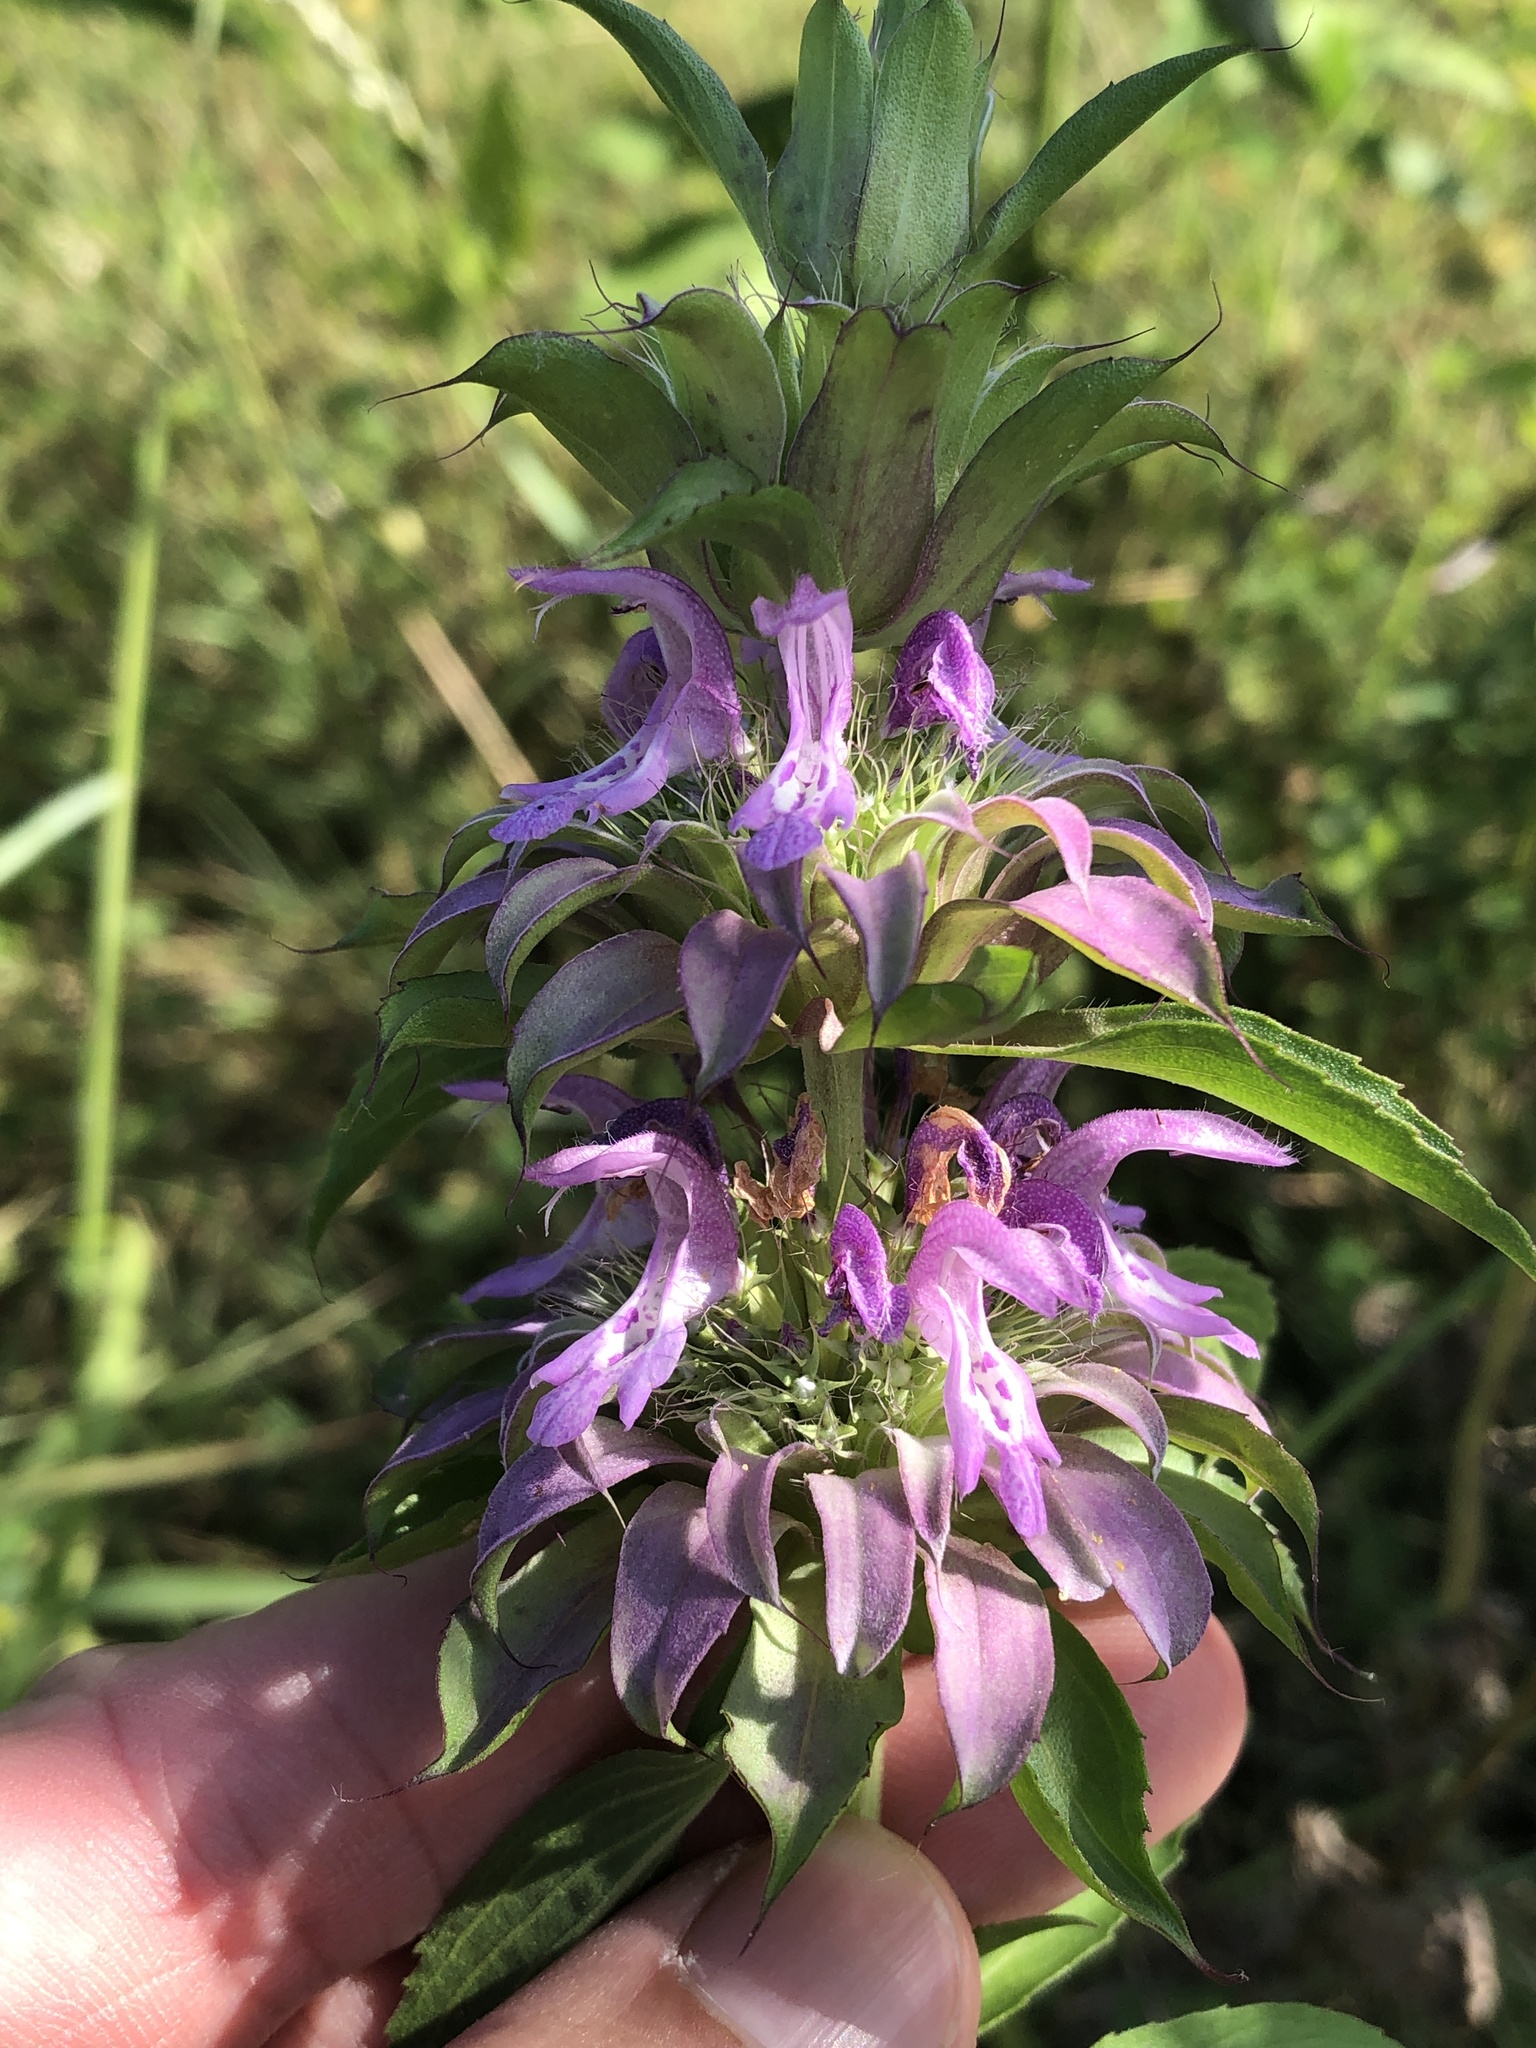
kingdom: Plantae
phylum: Tracheophyta
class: Magnoliopsida
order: Lamiales
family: Lamiaceae
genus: Monarda
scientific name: Monarda citriodora
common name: Lemon beebalm
